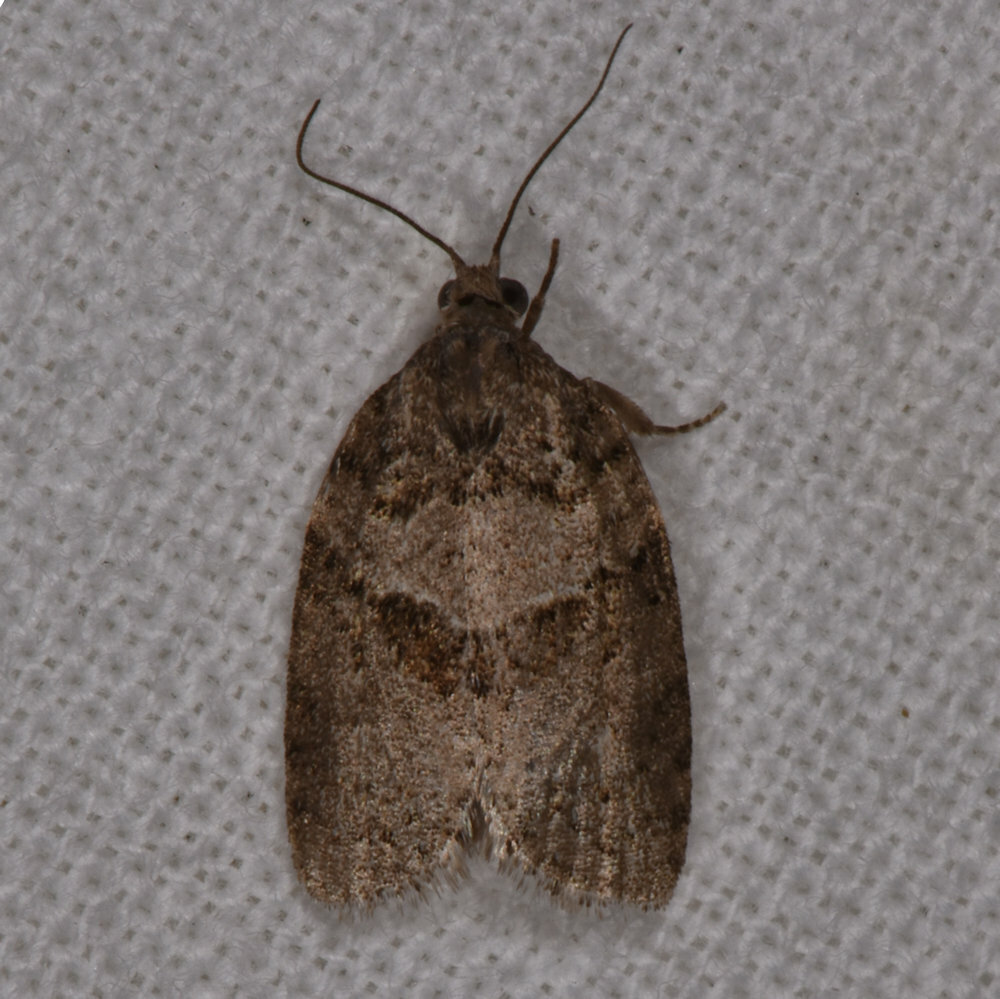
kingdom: Animalia
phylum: Arthropoda
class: Insecta
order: Lepidoptera
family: Tortricidae
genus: Syndemis
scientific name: Syndemis afflictana
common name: Gray leafroller moth
